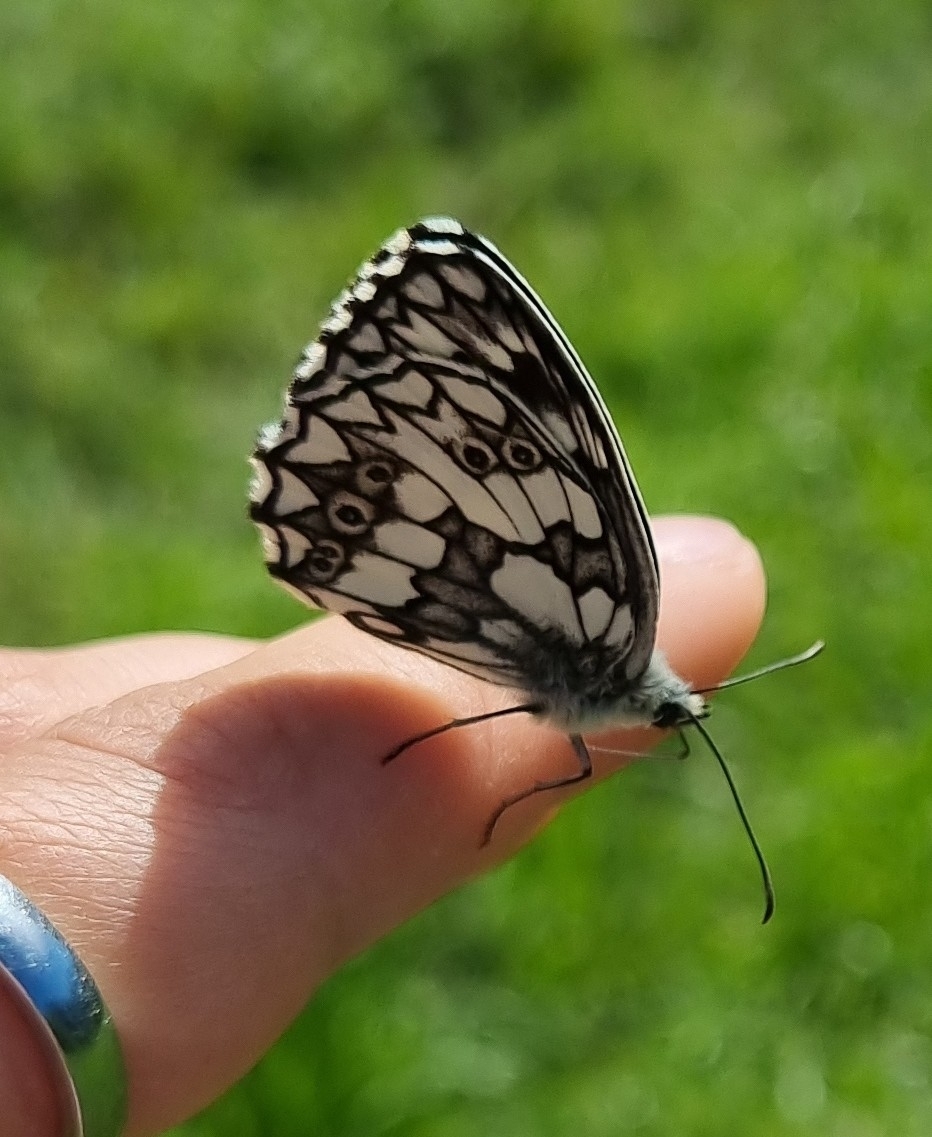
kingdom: Animalia
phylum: Arthropoda
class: Insecta
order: Lepidoptera
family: Nymphalidae
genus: Melanargia
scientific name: Melanargia galathea
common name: Marbled white
